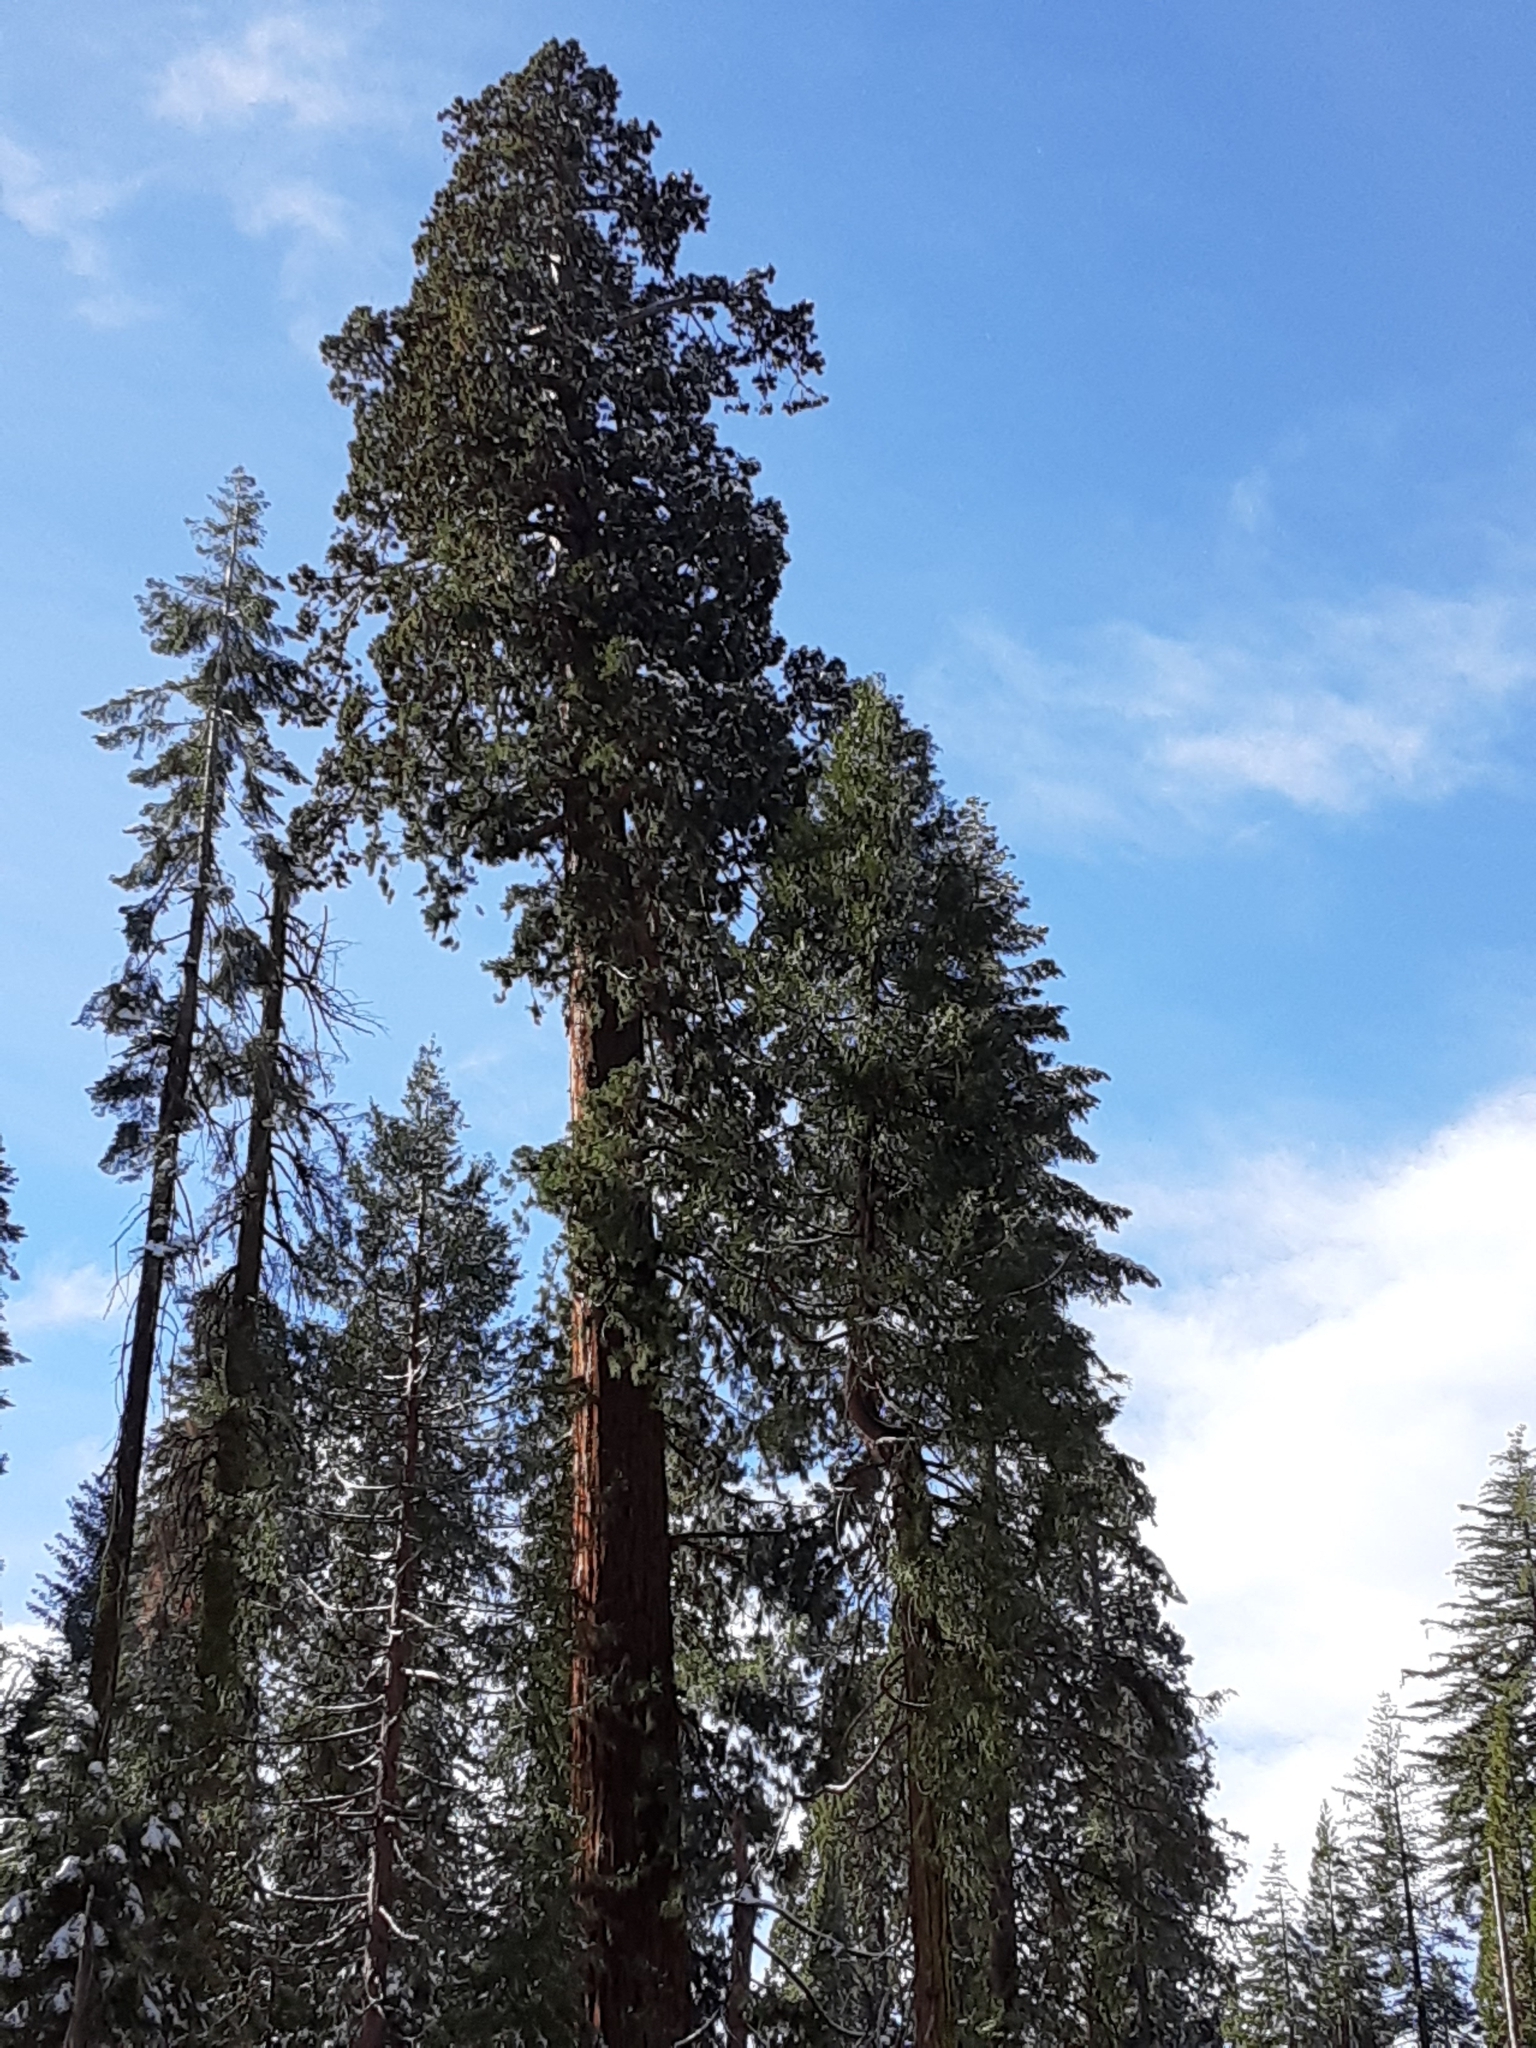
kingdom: Plantae
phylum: Tracheophyta
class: Pinopsida
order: Pinales
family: Cupressaceae
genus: Sequoiadendron
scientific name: Sequoiadendron giganteum
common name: Wellingtonia
